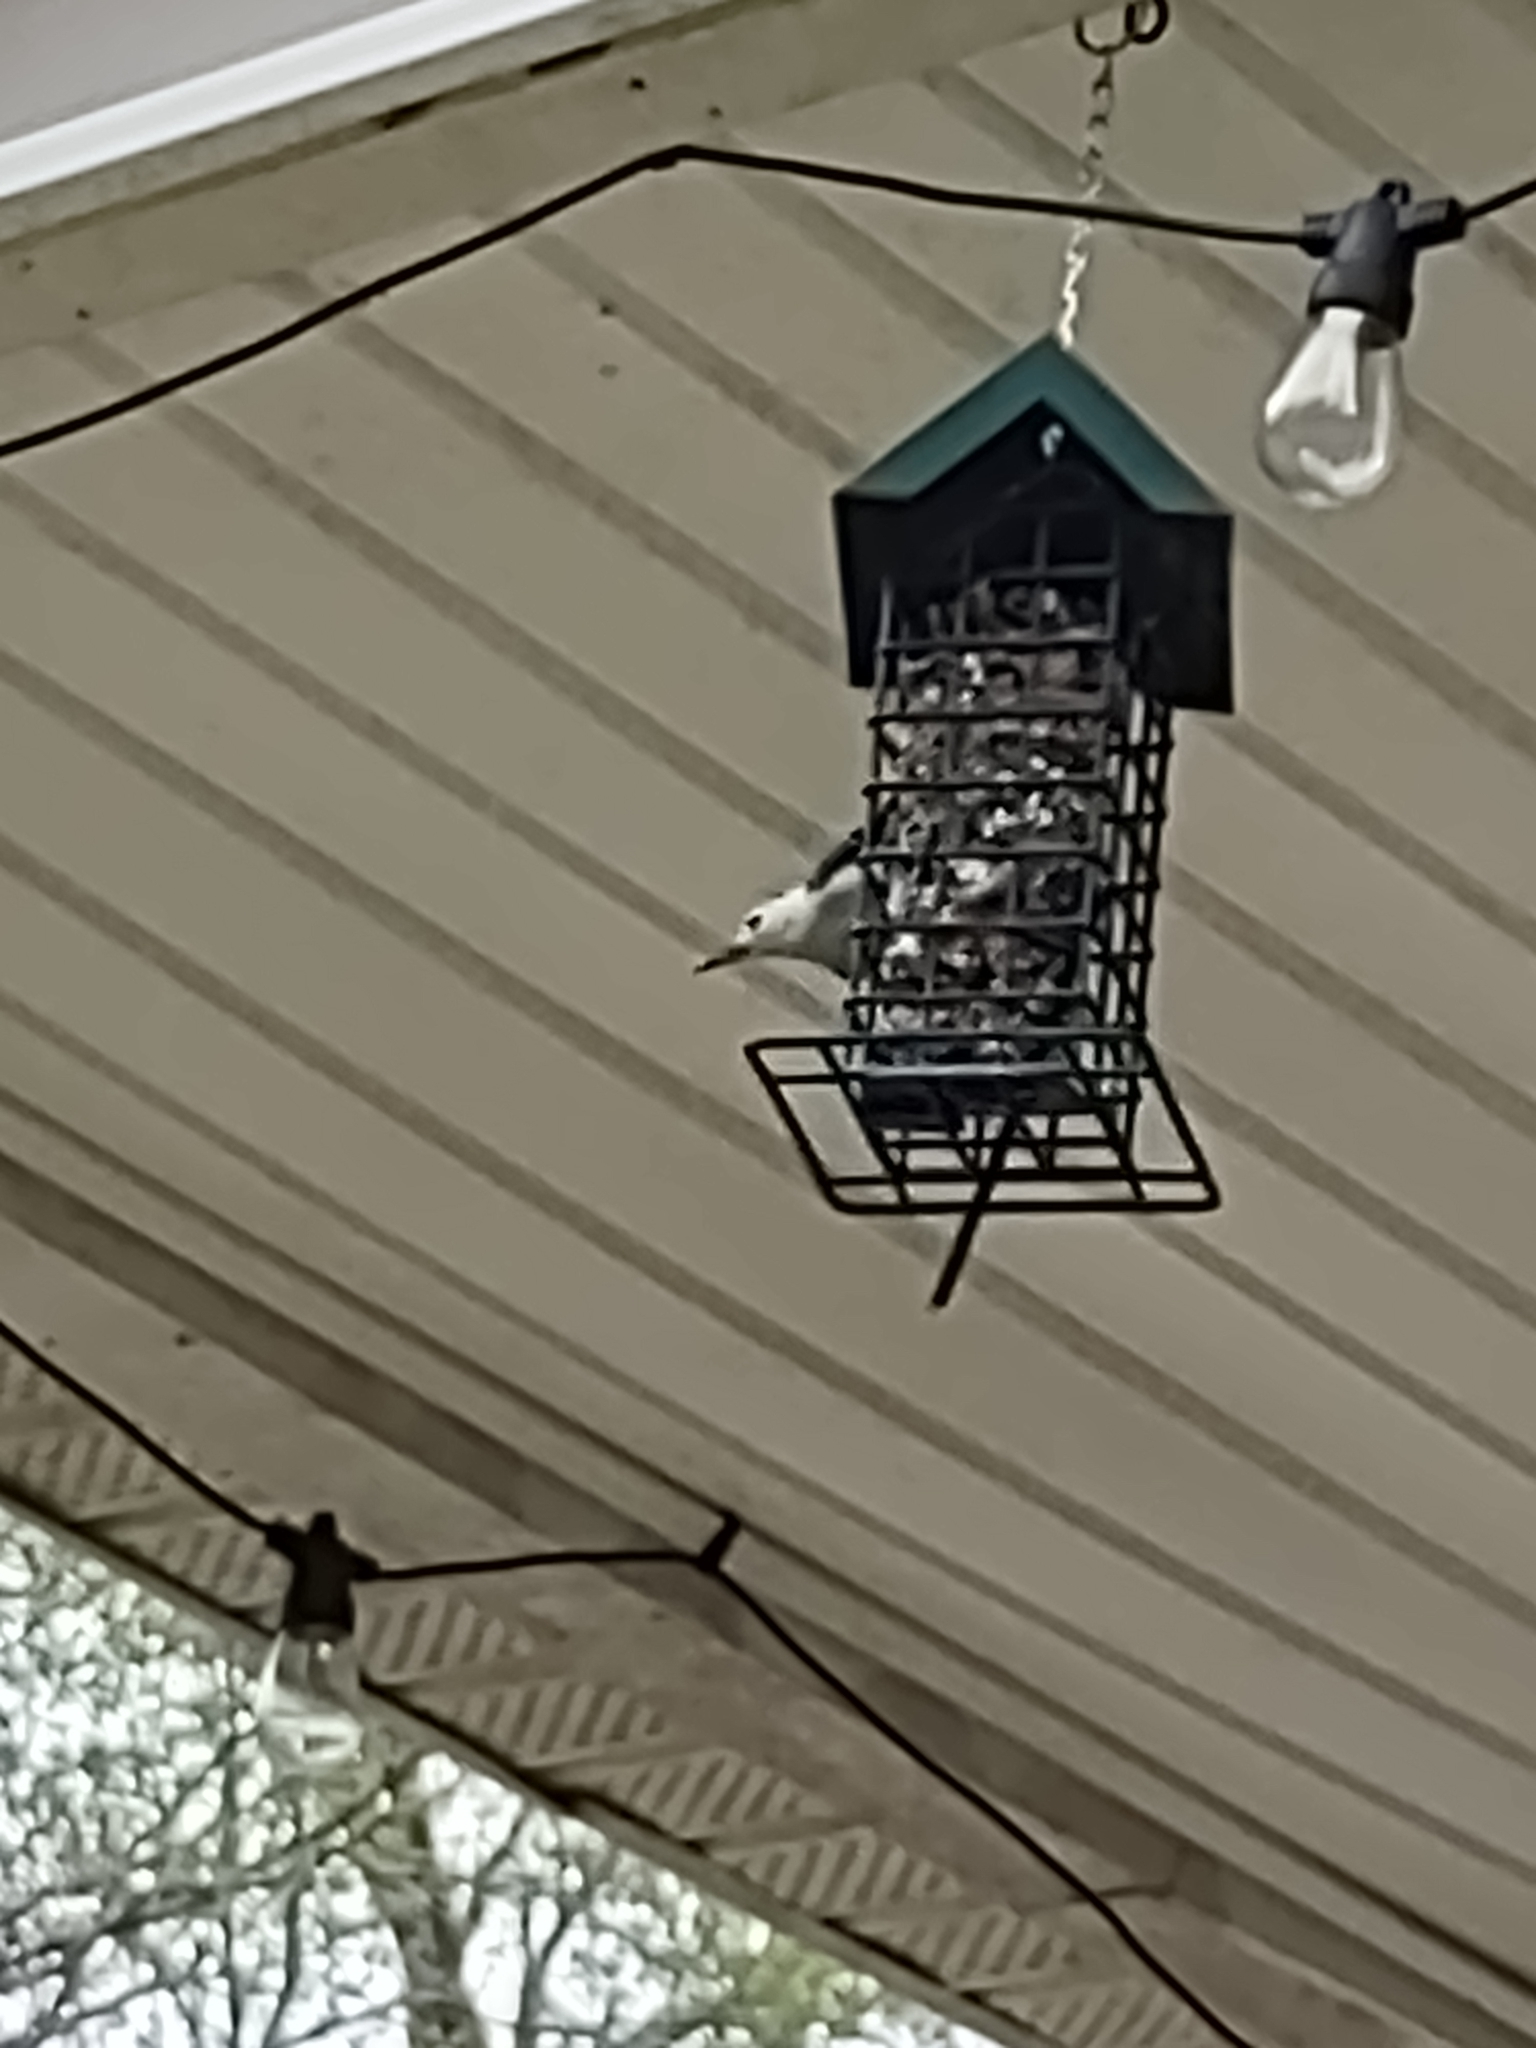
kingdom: Animalia
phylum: Chordata
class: Aves
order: Passeriformes
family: Sittidae
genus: Sitta
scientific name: Sitta carolinensis
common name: White-breasted nuthatch
